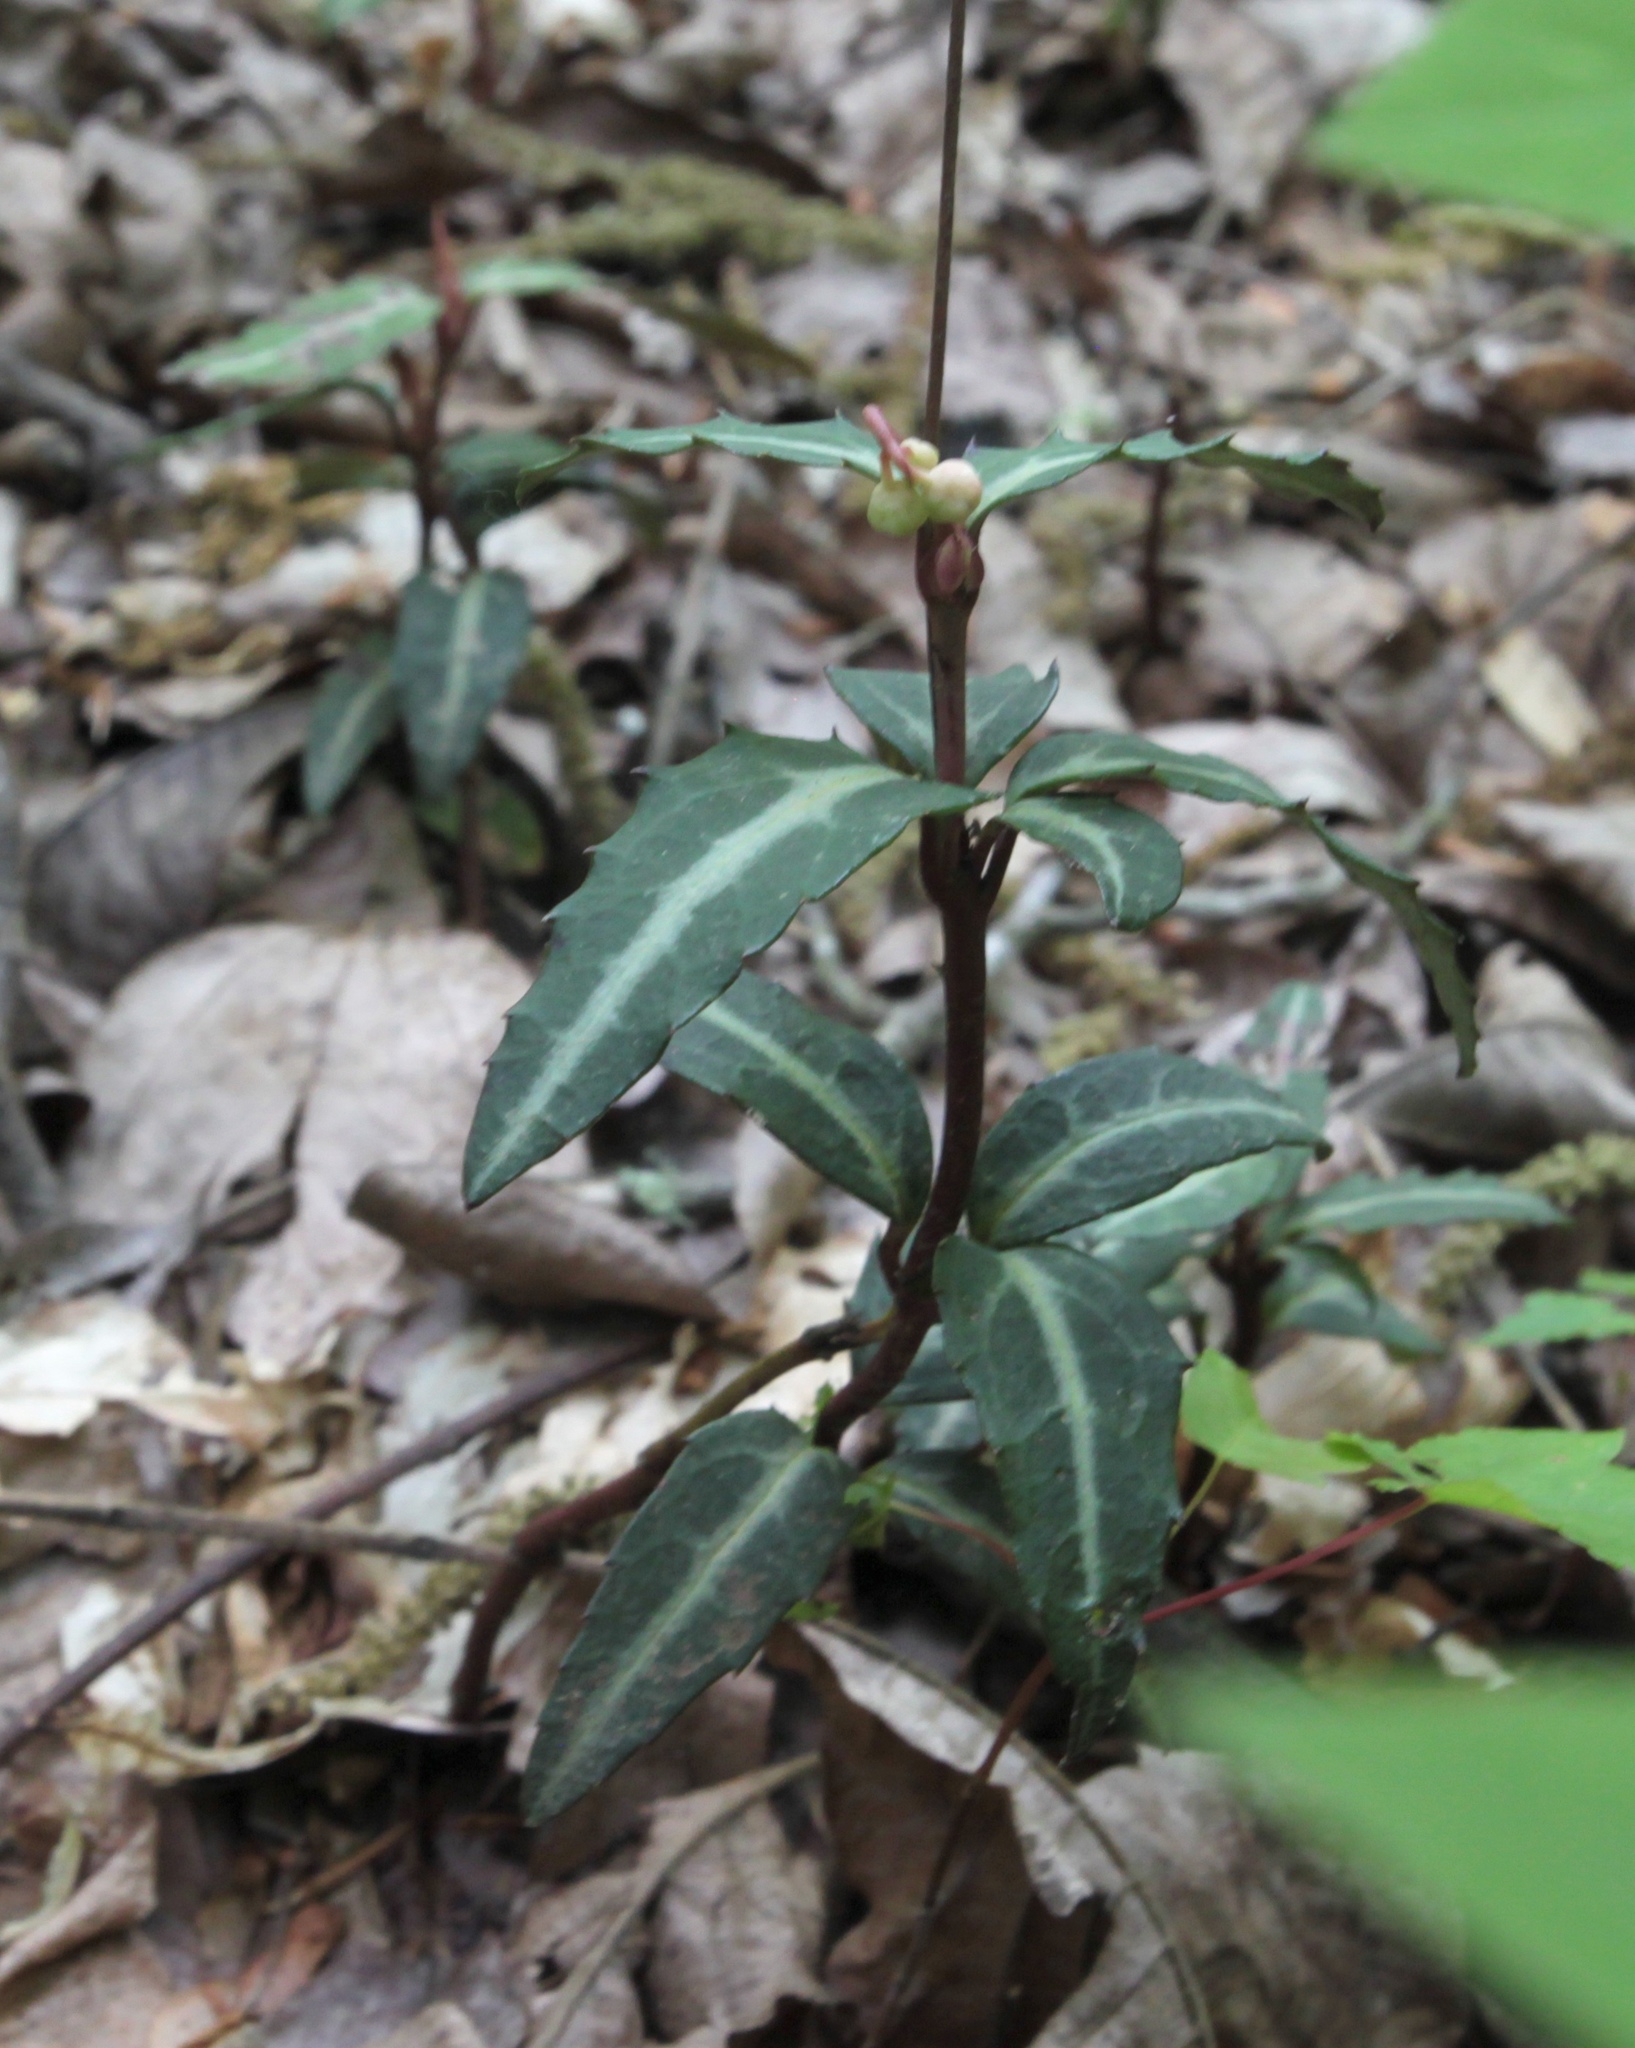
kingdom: Plantae
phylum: Tracheophyta
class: Magnoliopsida
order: Ericales
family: Ericaceae
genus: Chimaphila
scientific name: Chimaphila maculata
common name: Spotted pipsissewa
